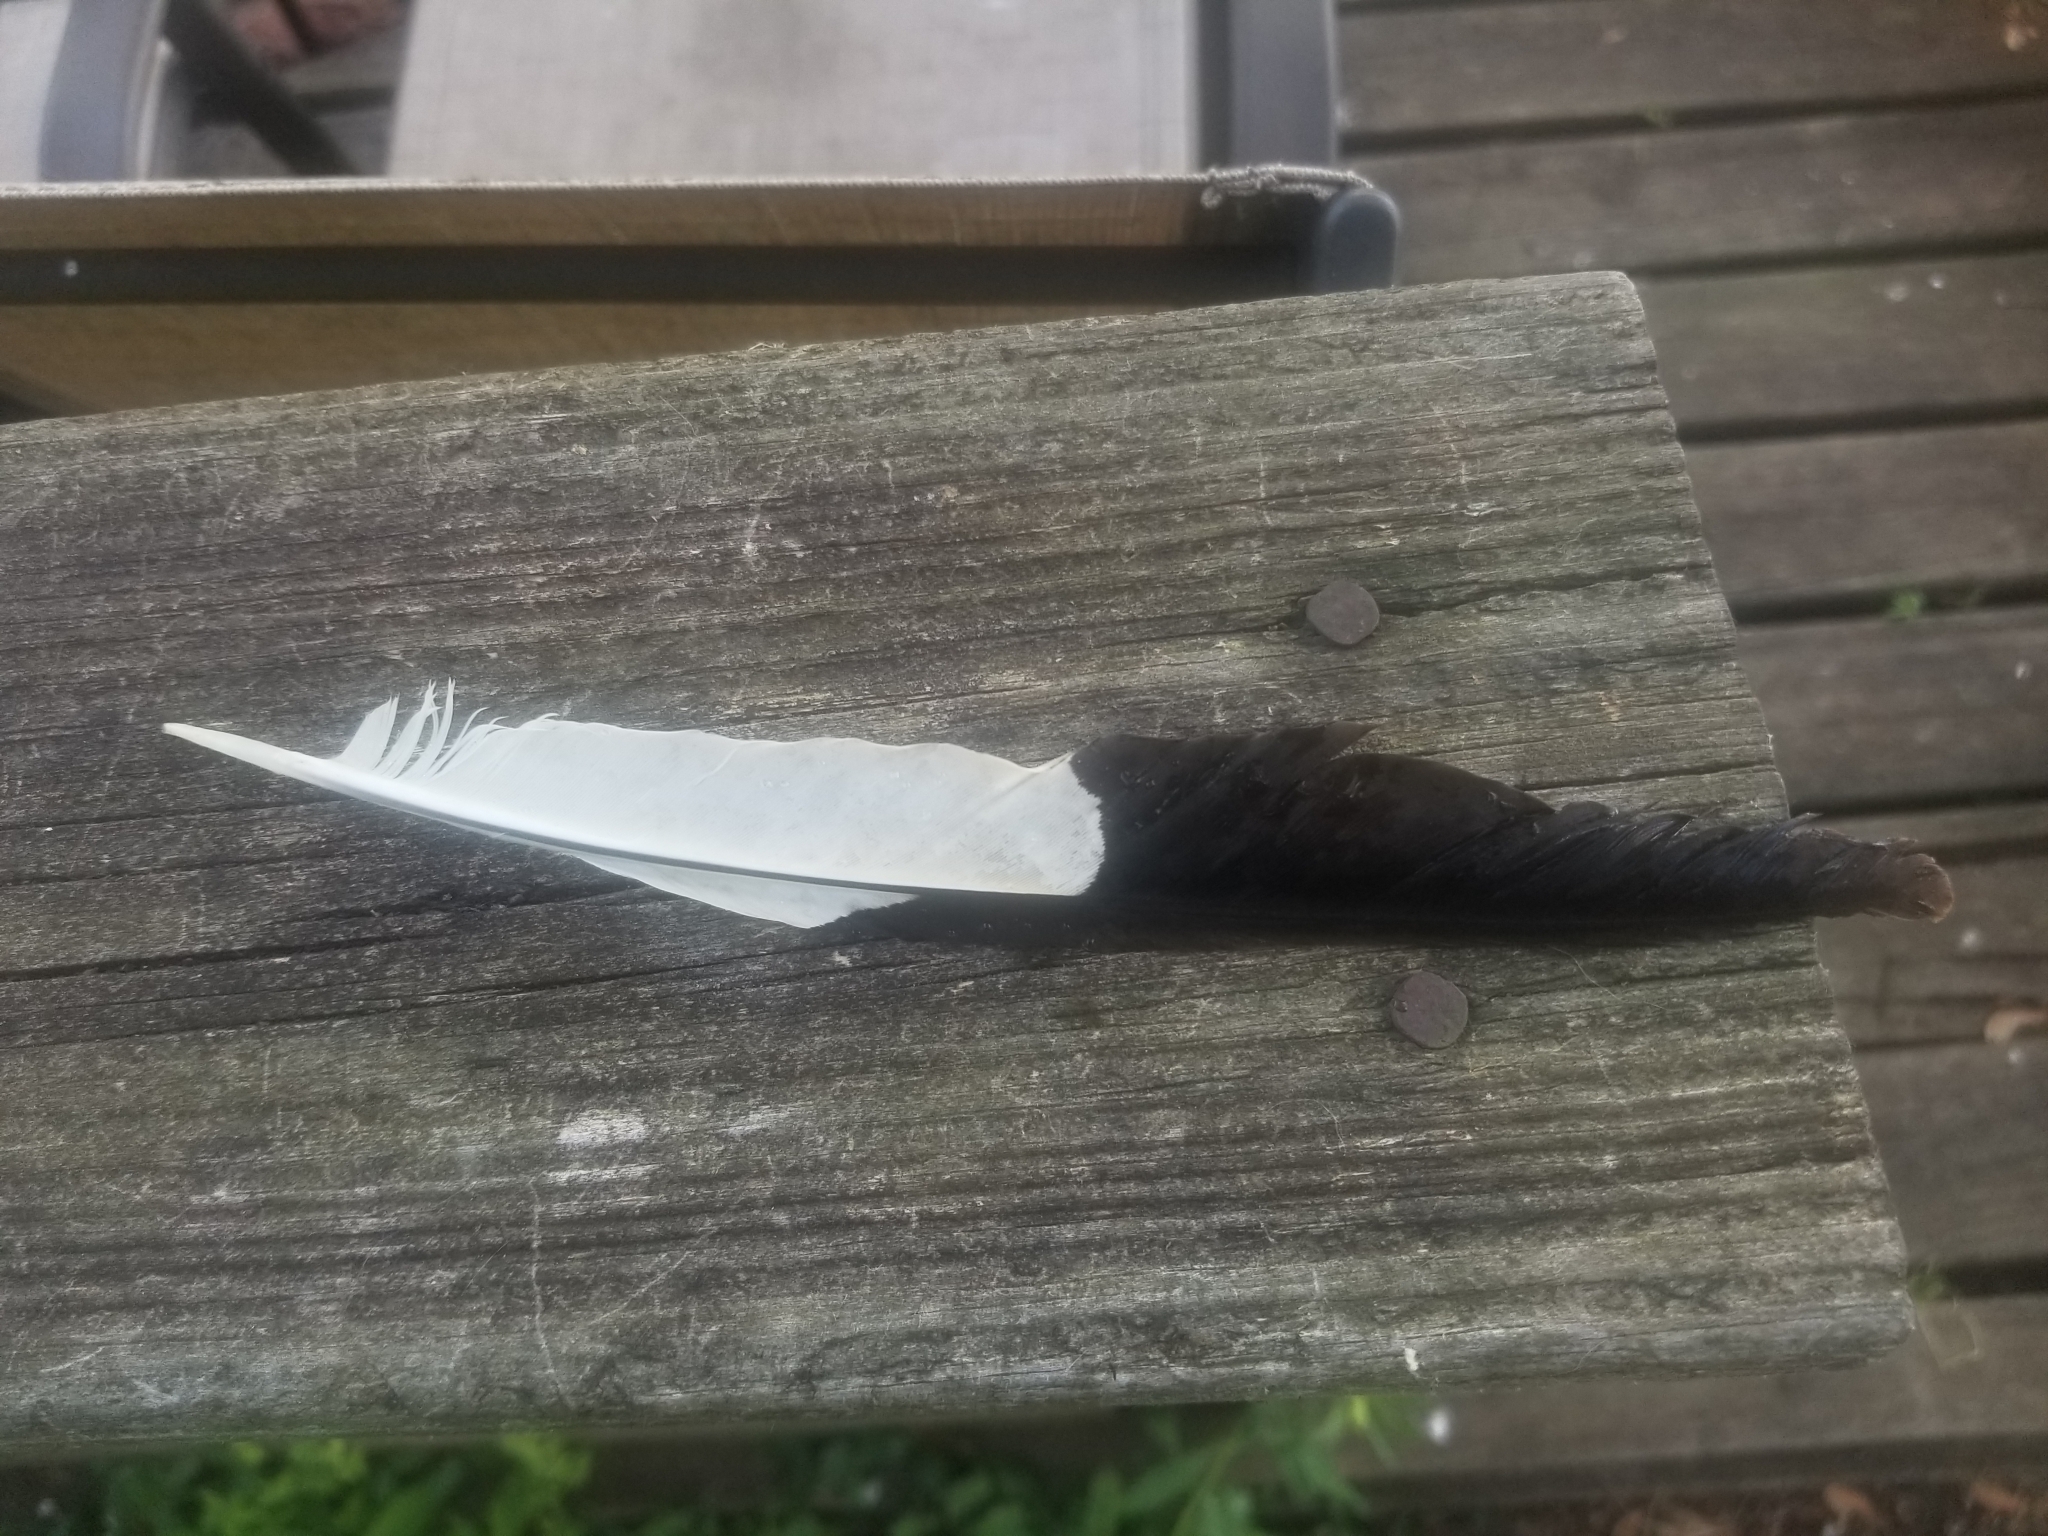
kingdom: Animalia
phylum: Chordata
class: Aves
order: Piciformes
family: Picidae
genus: Dryocopus
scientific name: Dryocopus pileatus
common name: Pileated woodpecker
